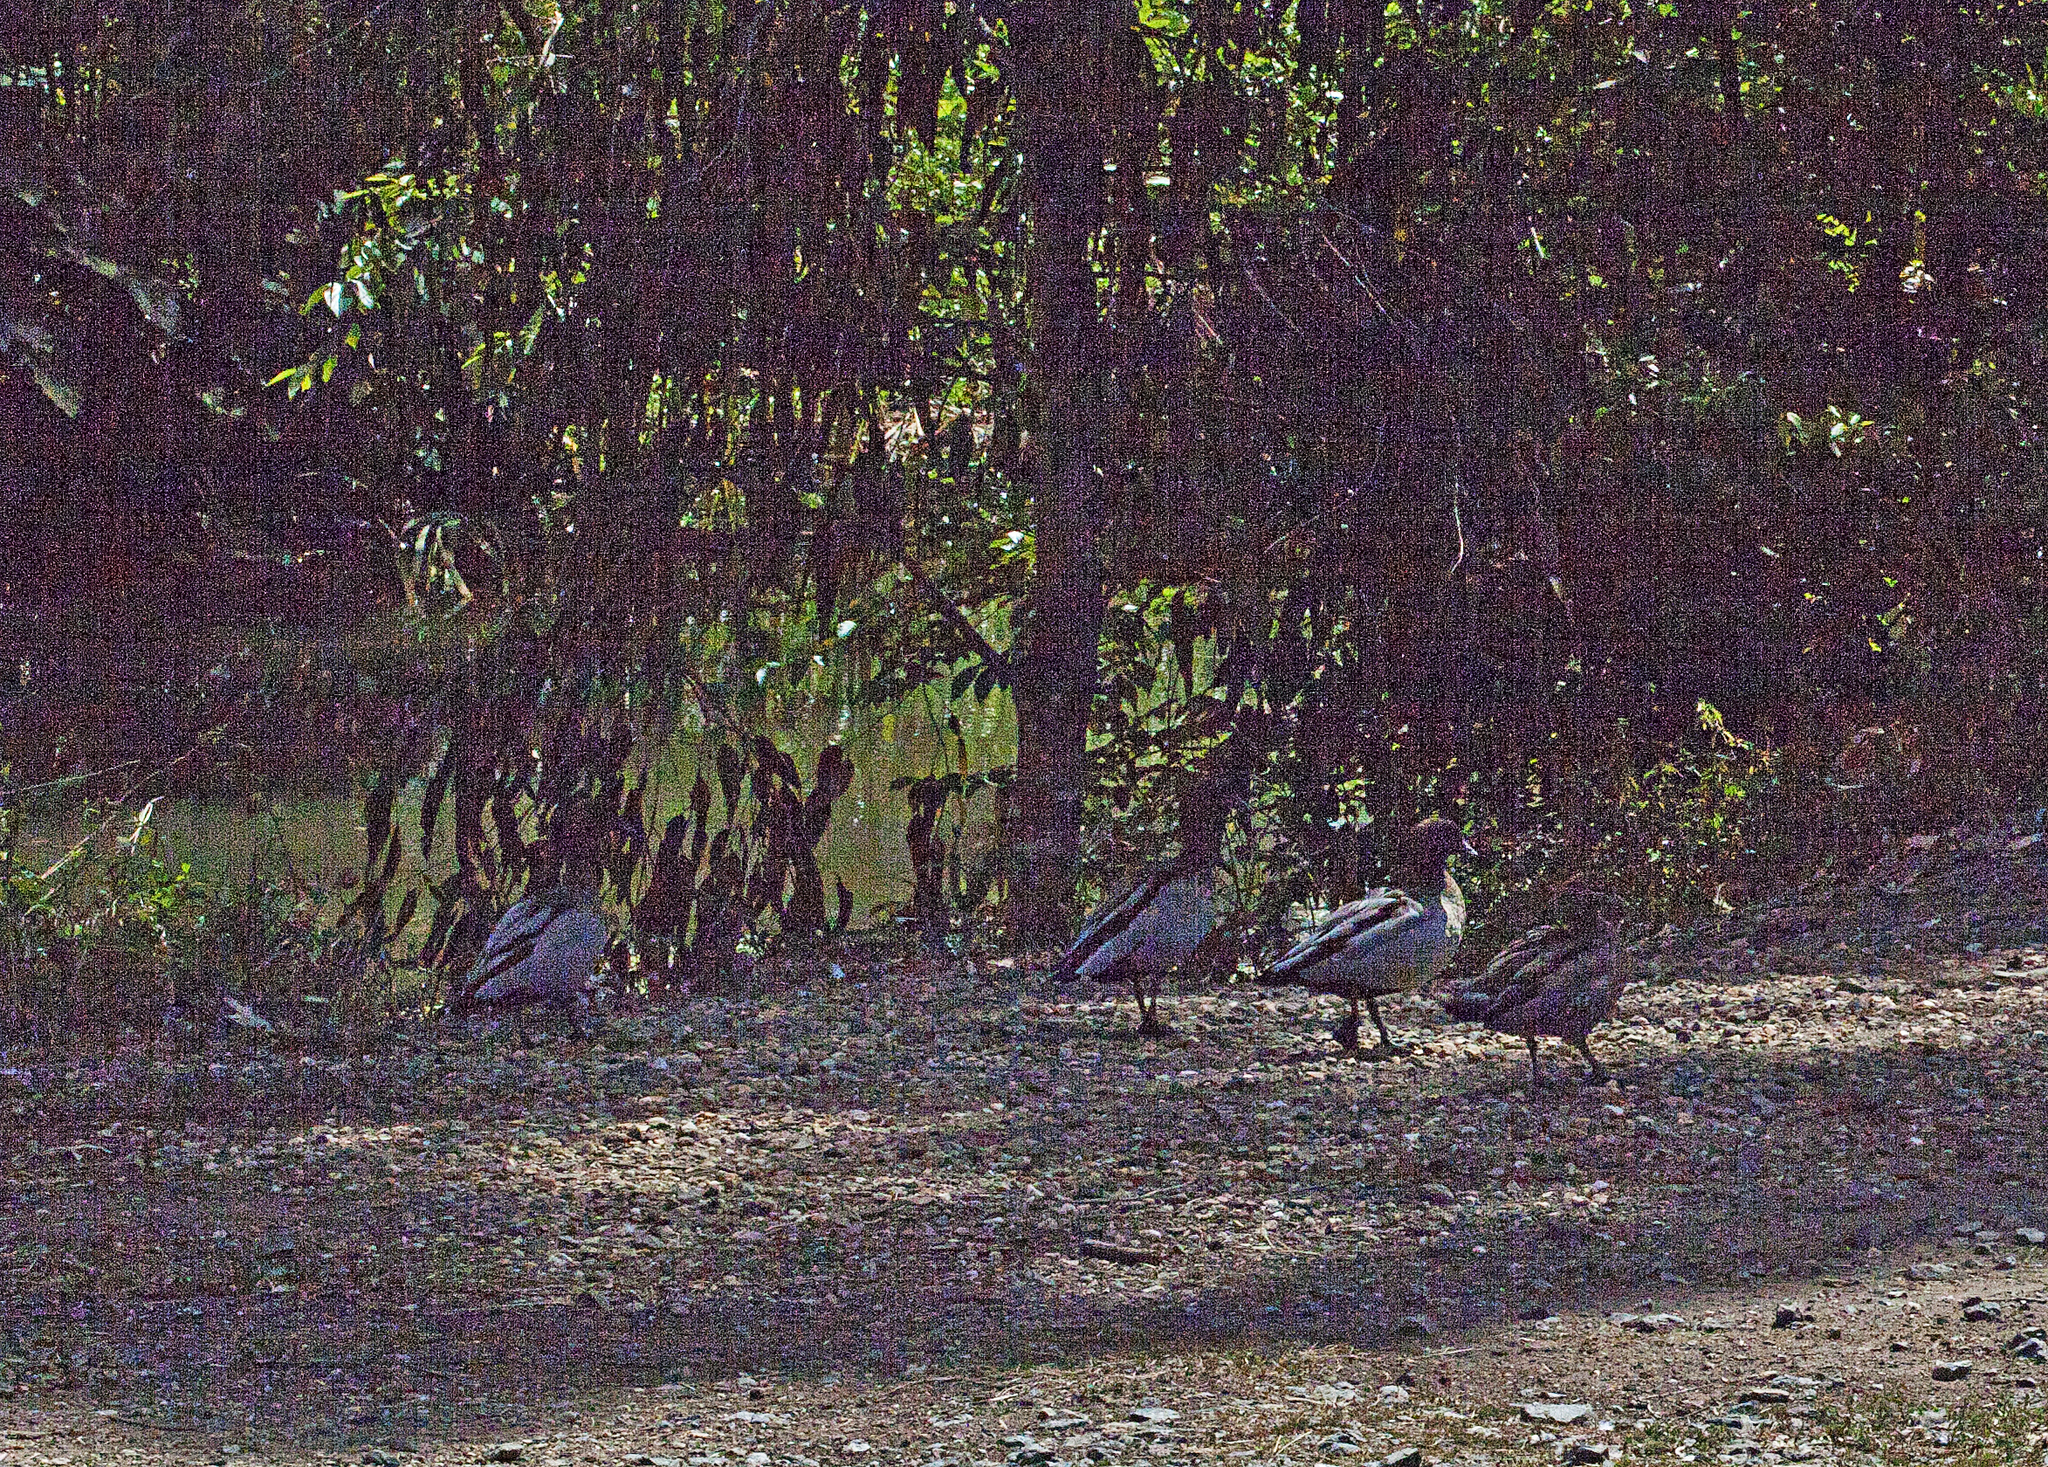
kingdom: Animalia
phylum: Chordata
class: Aves
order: Anseriformes
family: Anatidae
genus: Chenonetta
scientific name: Chenonetta jubata
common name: Maned duck
